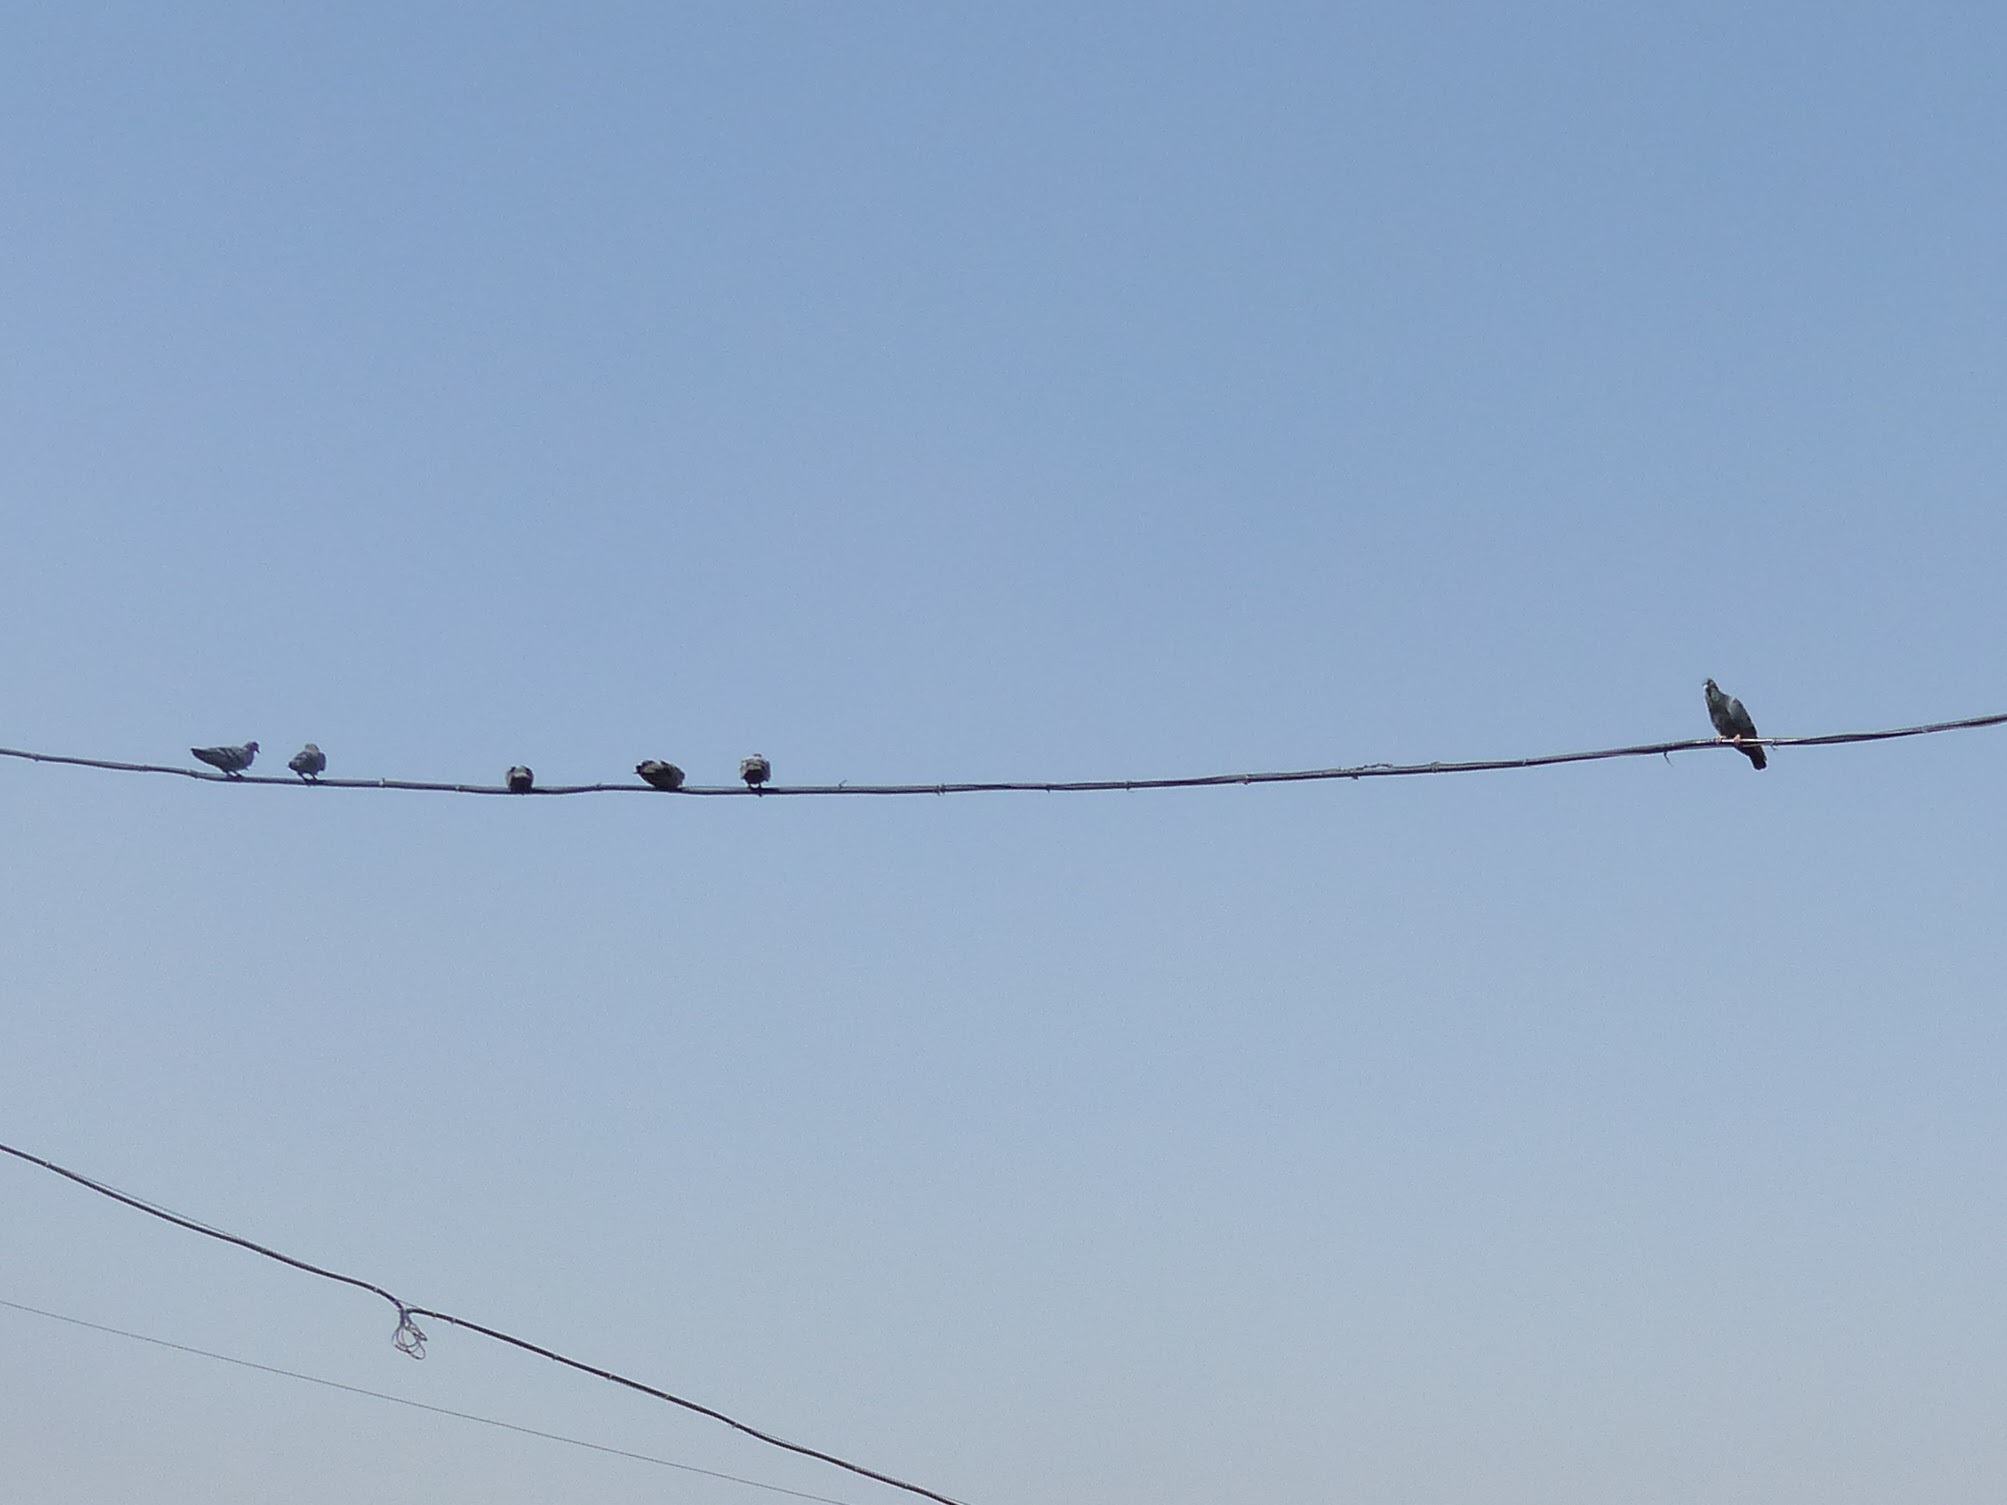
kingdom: Animalia
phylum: Chordata
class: Aves
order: Columbiformes
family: Columbidae
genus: Columba
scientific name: Columba livia
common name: Rock pigeon
